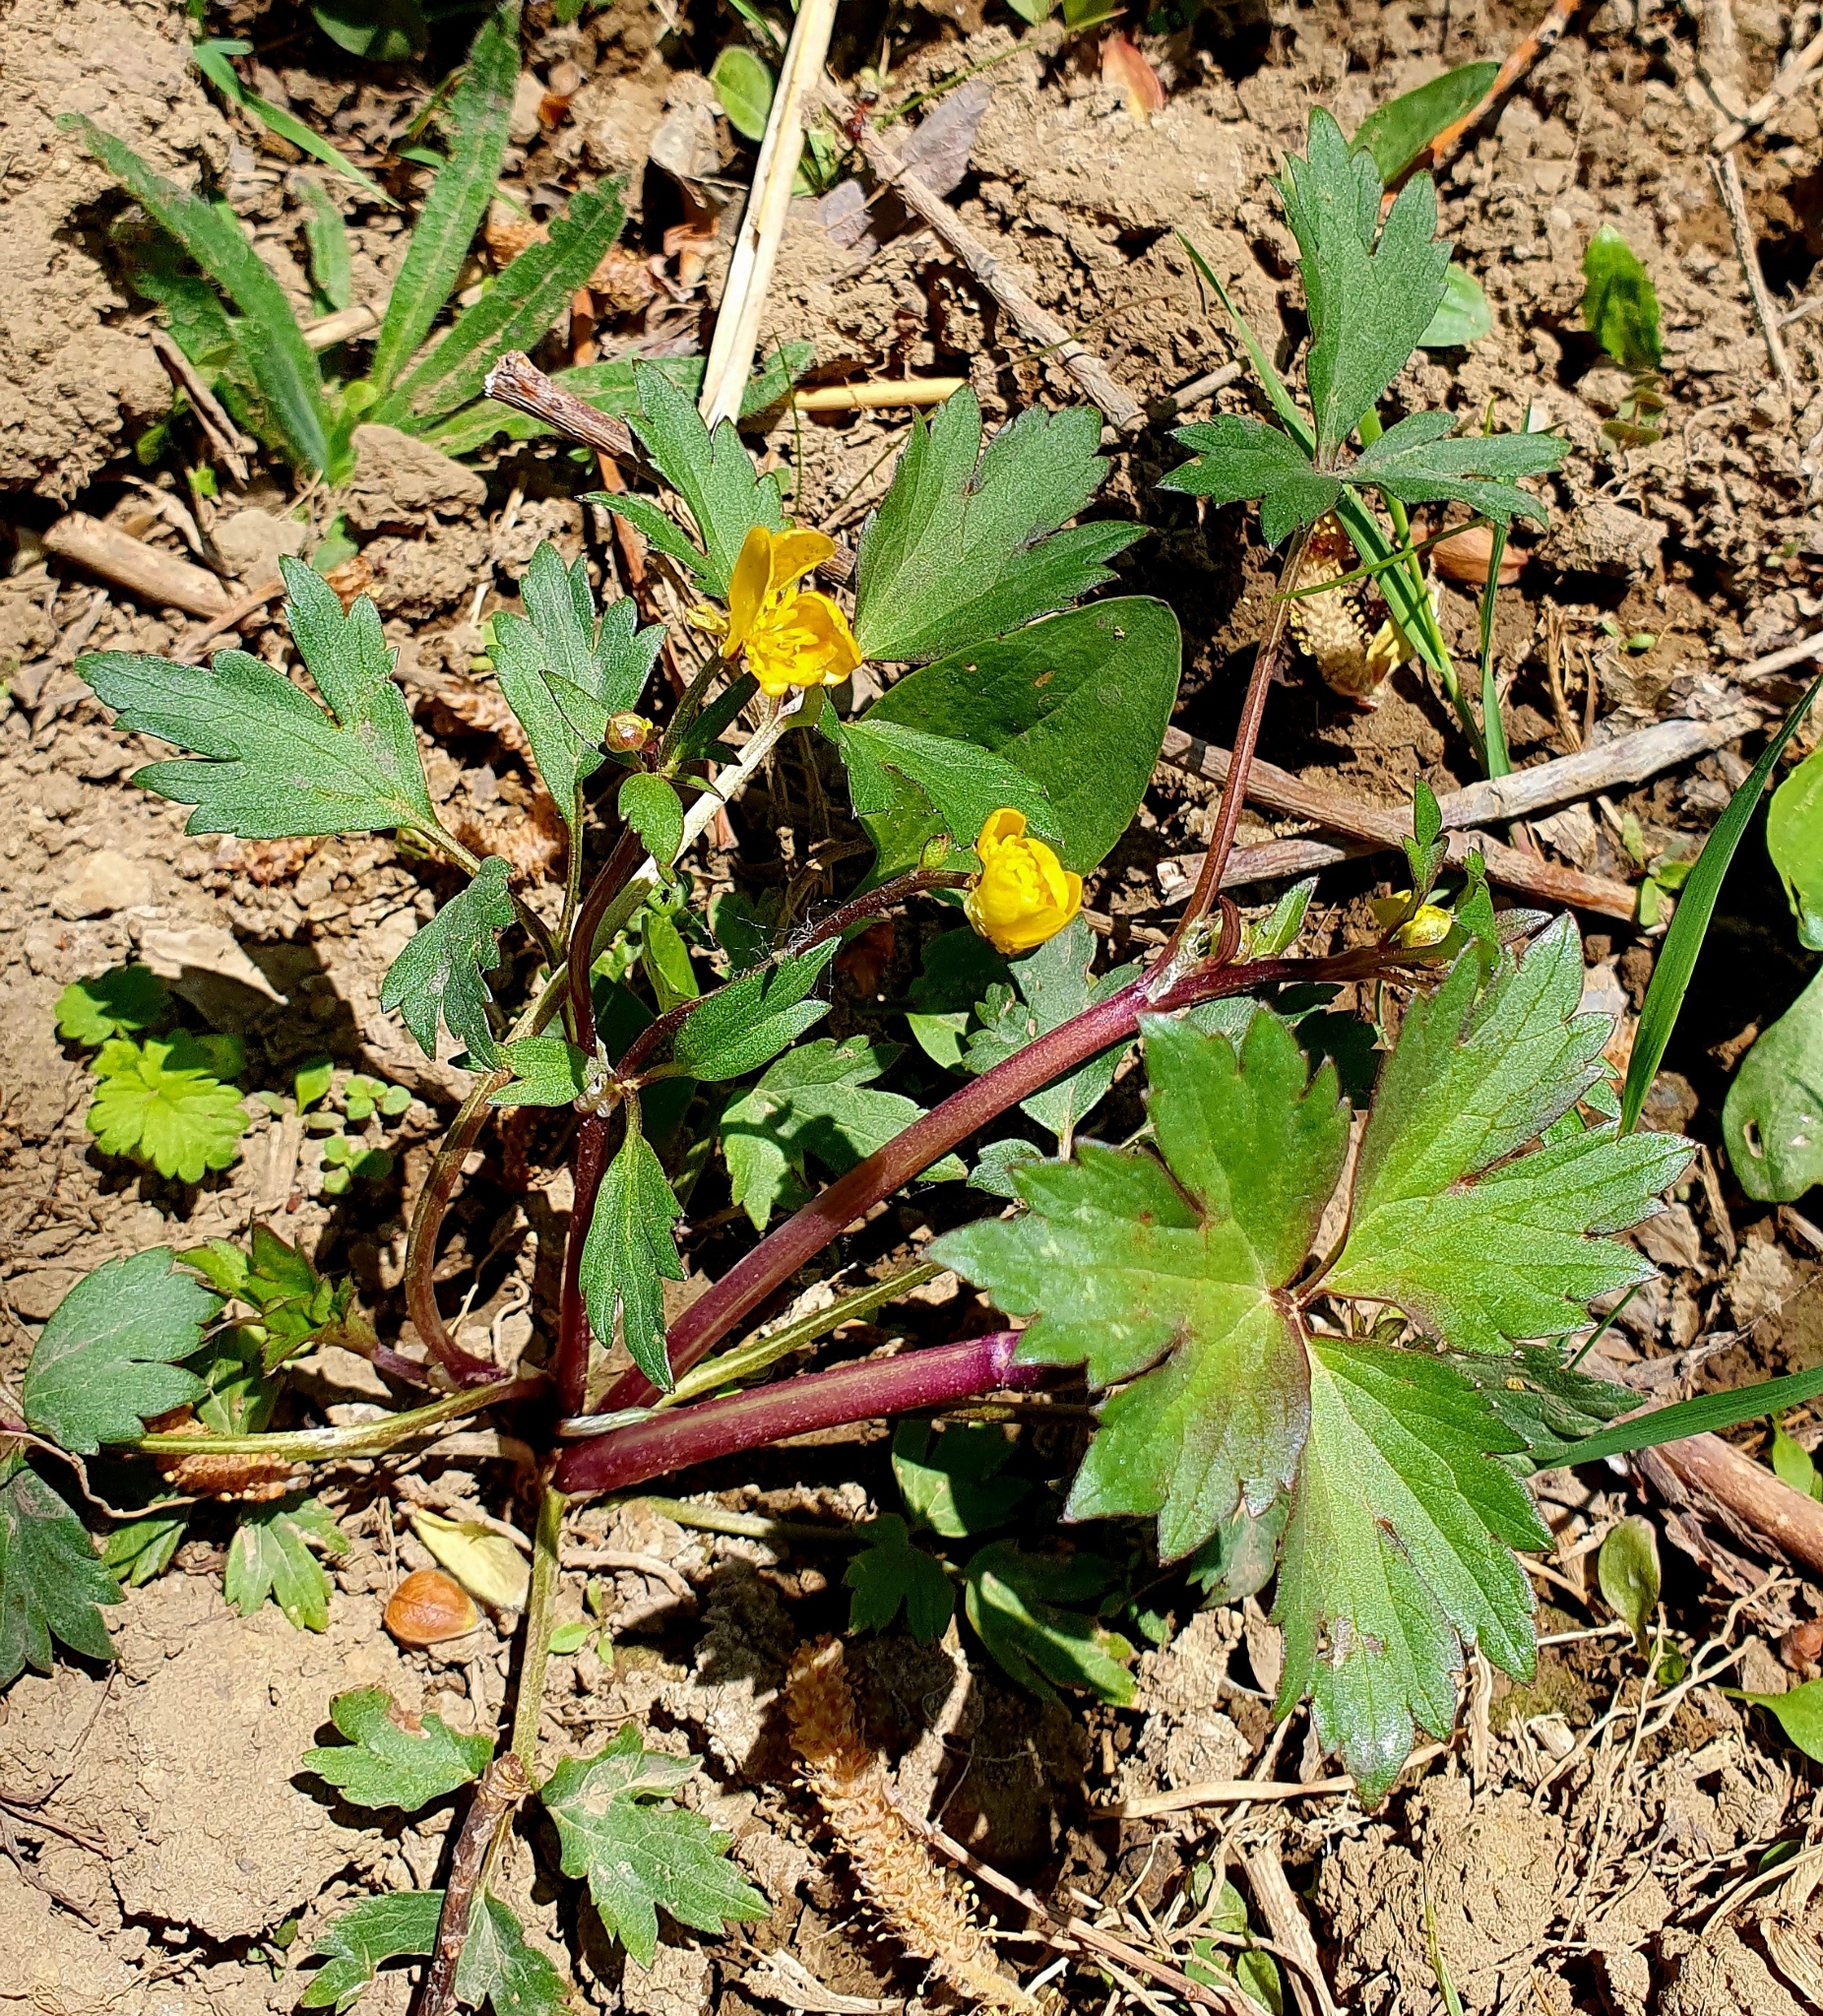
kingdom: Plantae
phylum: Tracheophyta
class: Magnoliopsida
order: Ranunculales
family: Ranunculaceae
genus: Ranunculus
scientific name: Ranunculus repens
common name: Creeping buttercup
